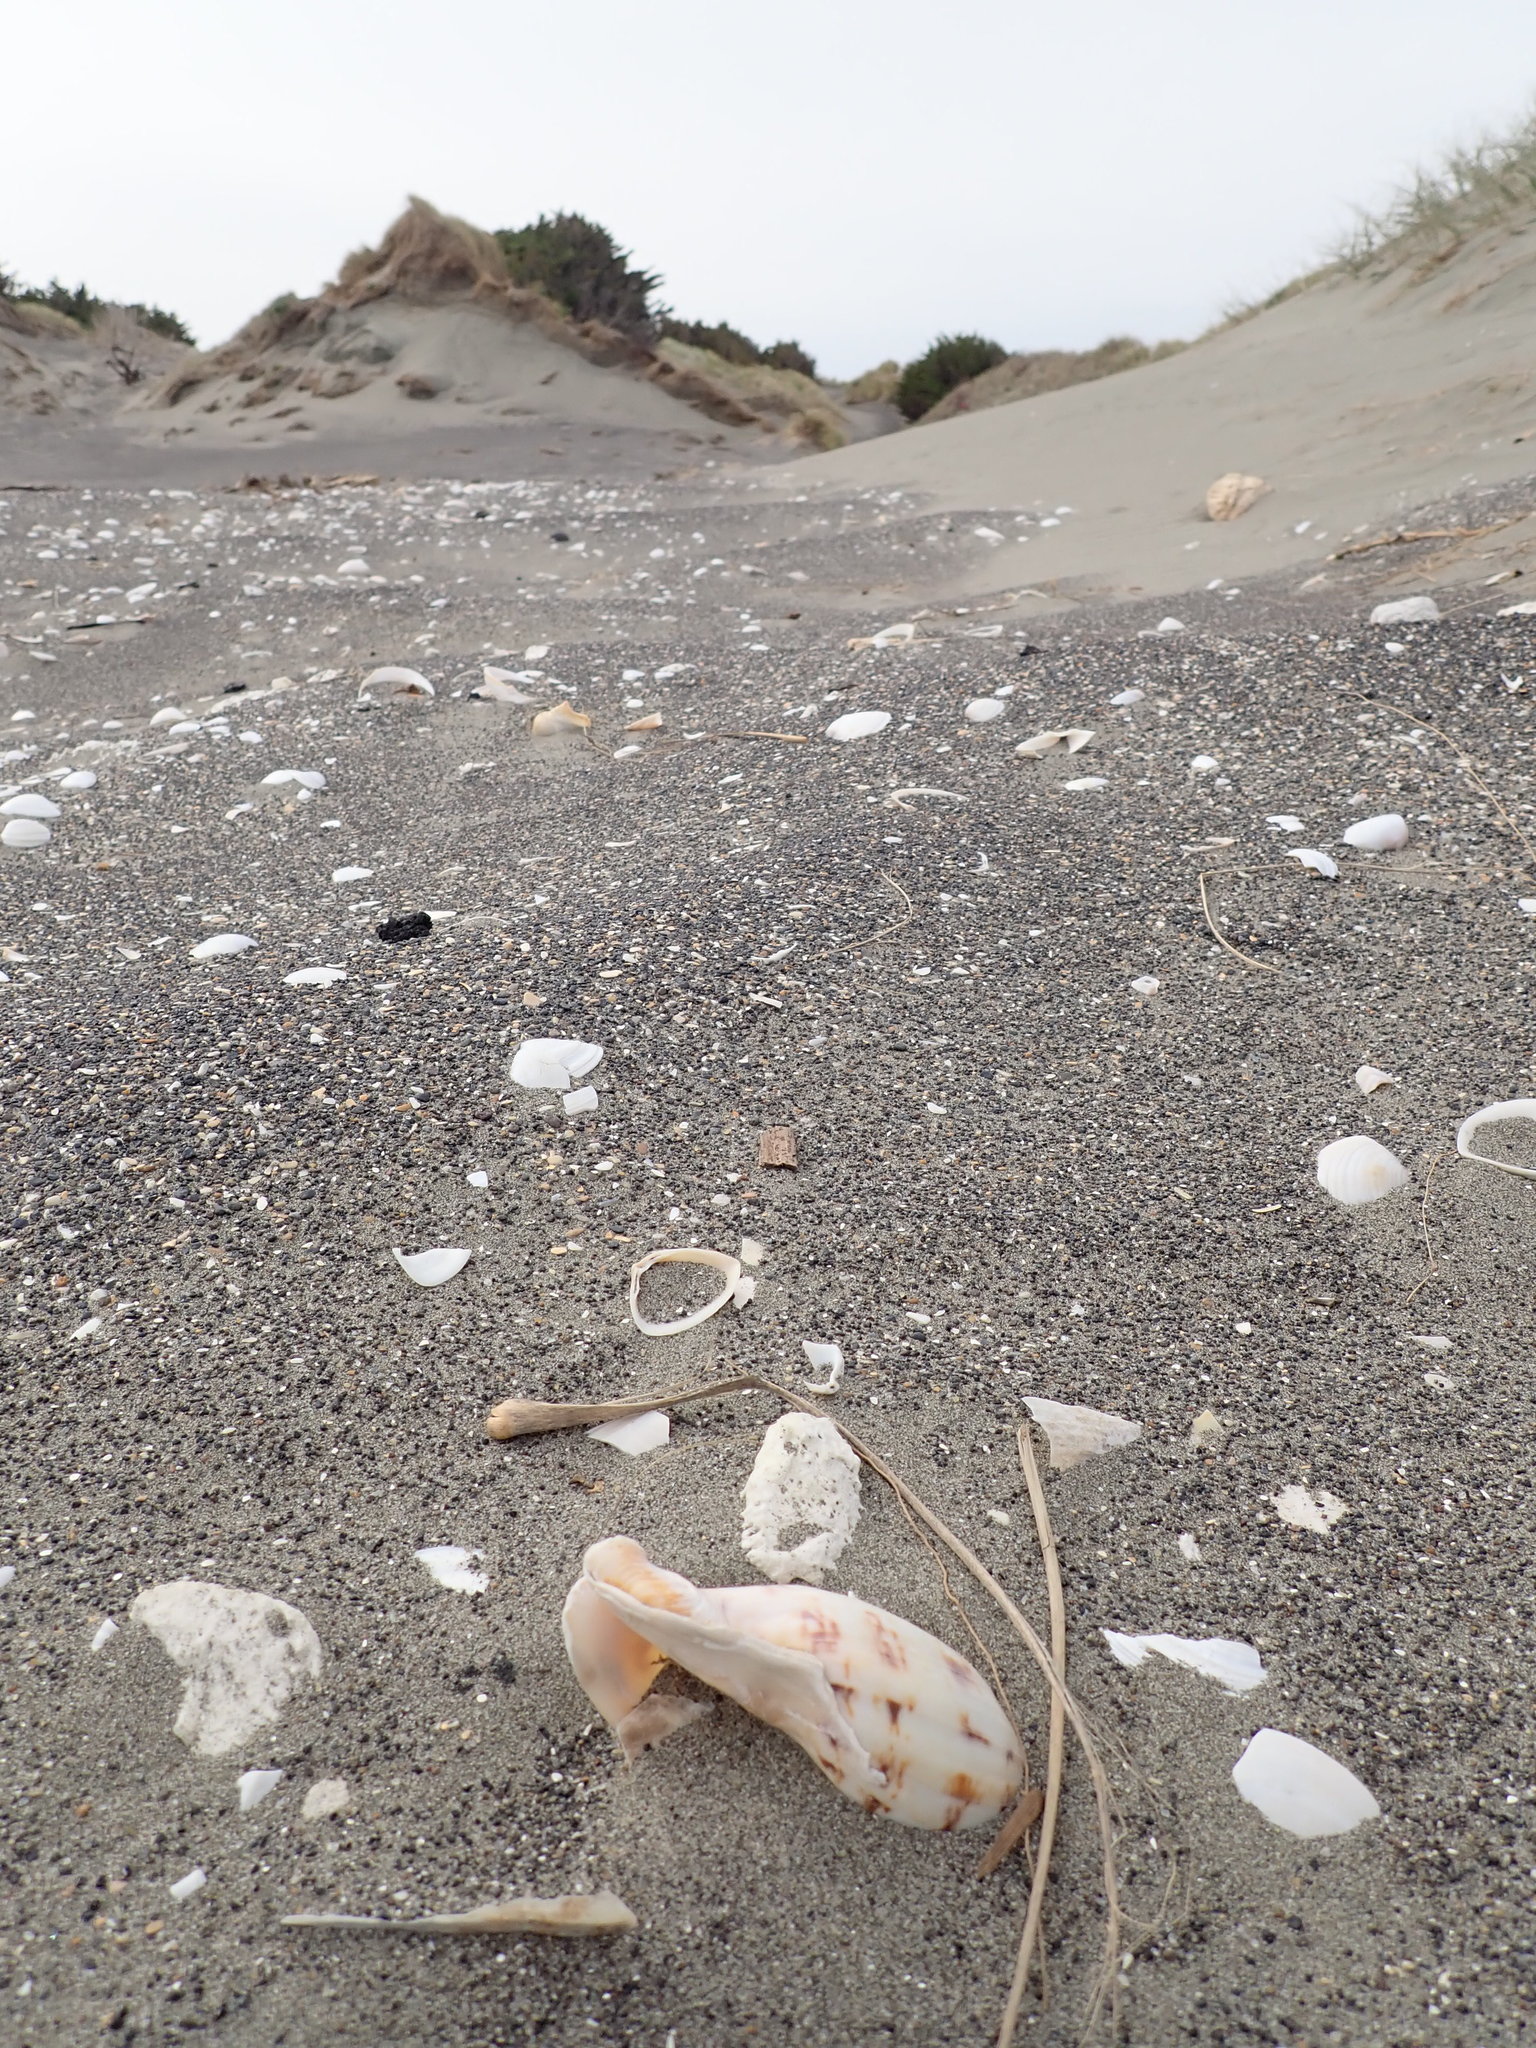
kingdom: Animalia
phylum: Mollusca
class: Gastropoda
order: Neogastropoda
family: Volutidae
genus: Alcithoe
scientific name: Alcithoe arabica
